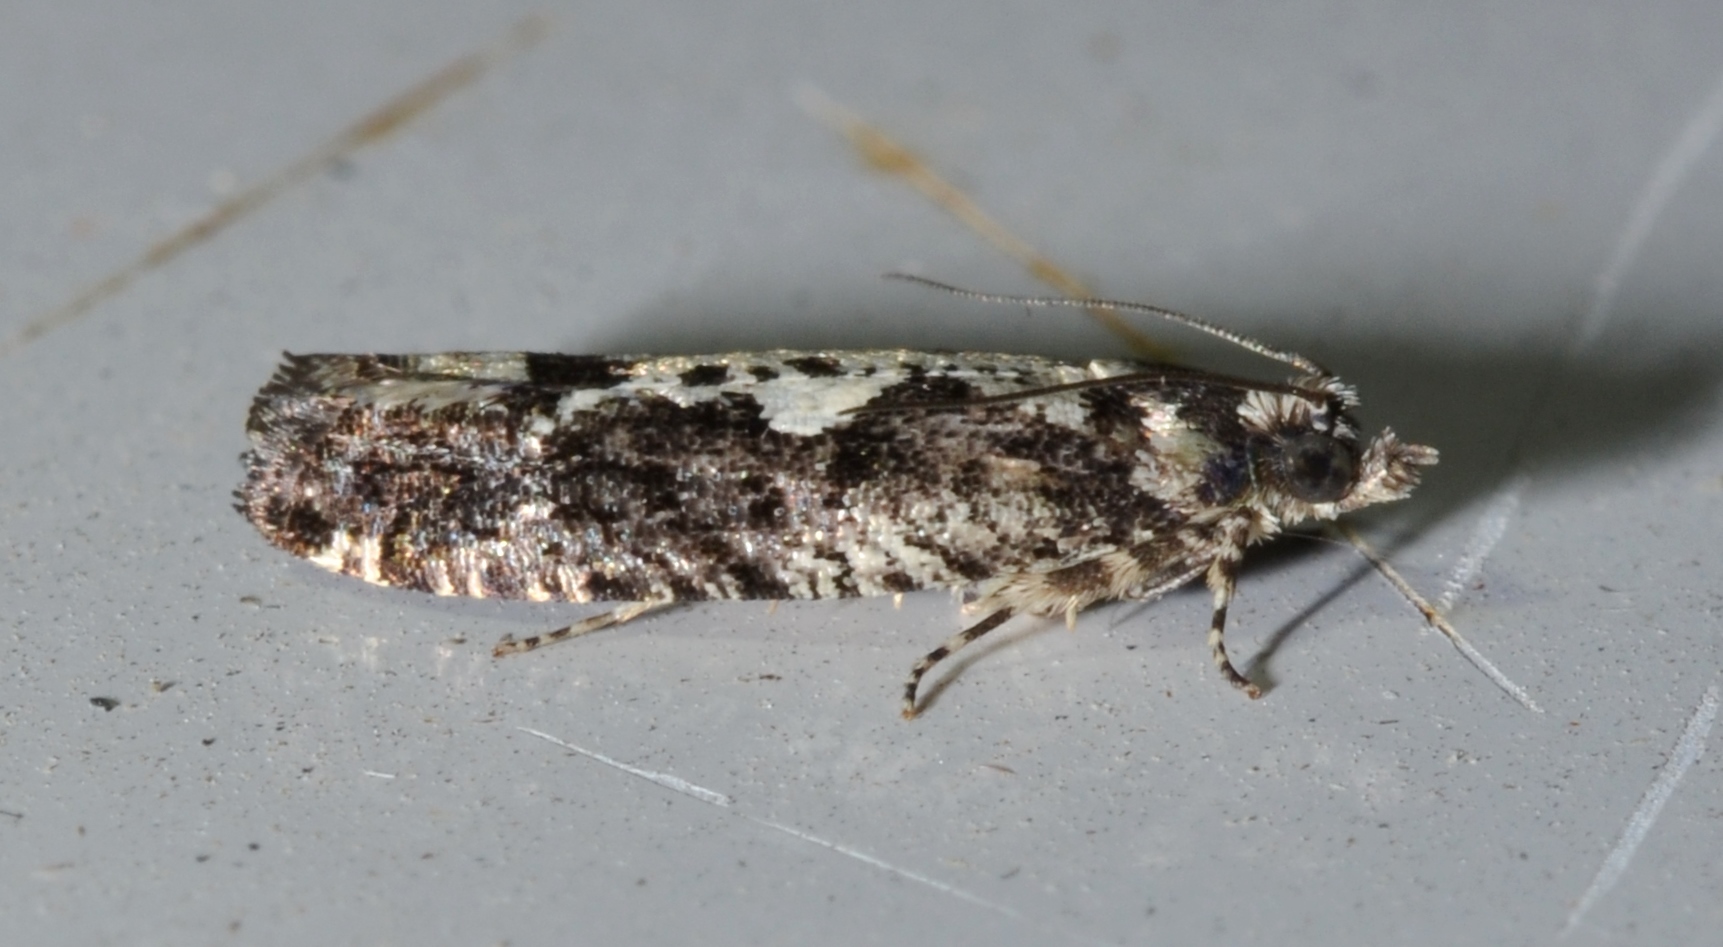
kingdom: Animalia
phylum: Arthropoda
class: Insecta
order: Lepidoptera
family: Tortricidae
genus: Chimoptesis
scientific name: Chimoptesis pennsylvaniana
